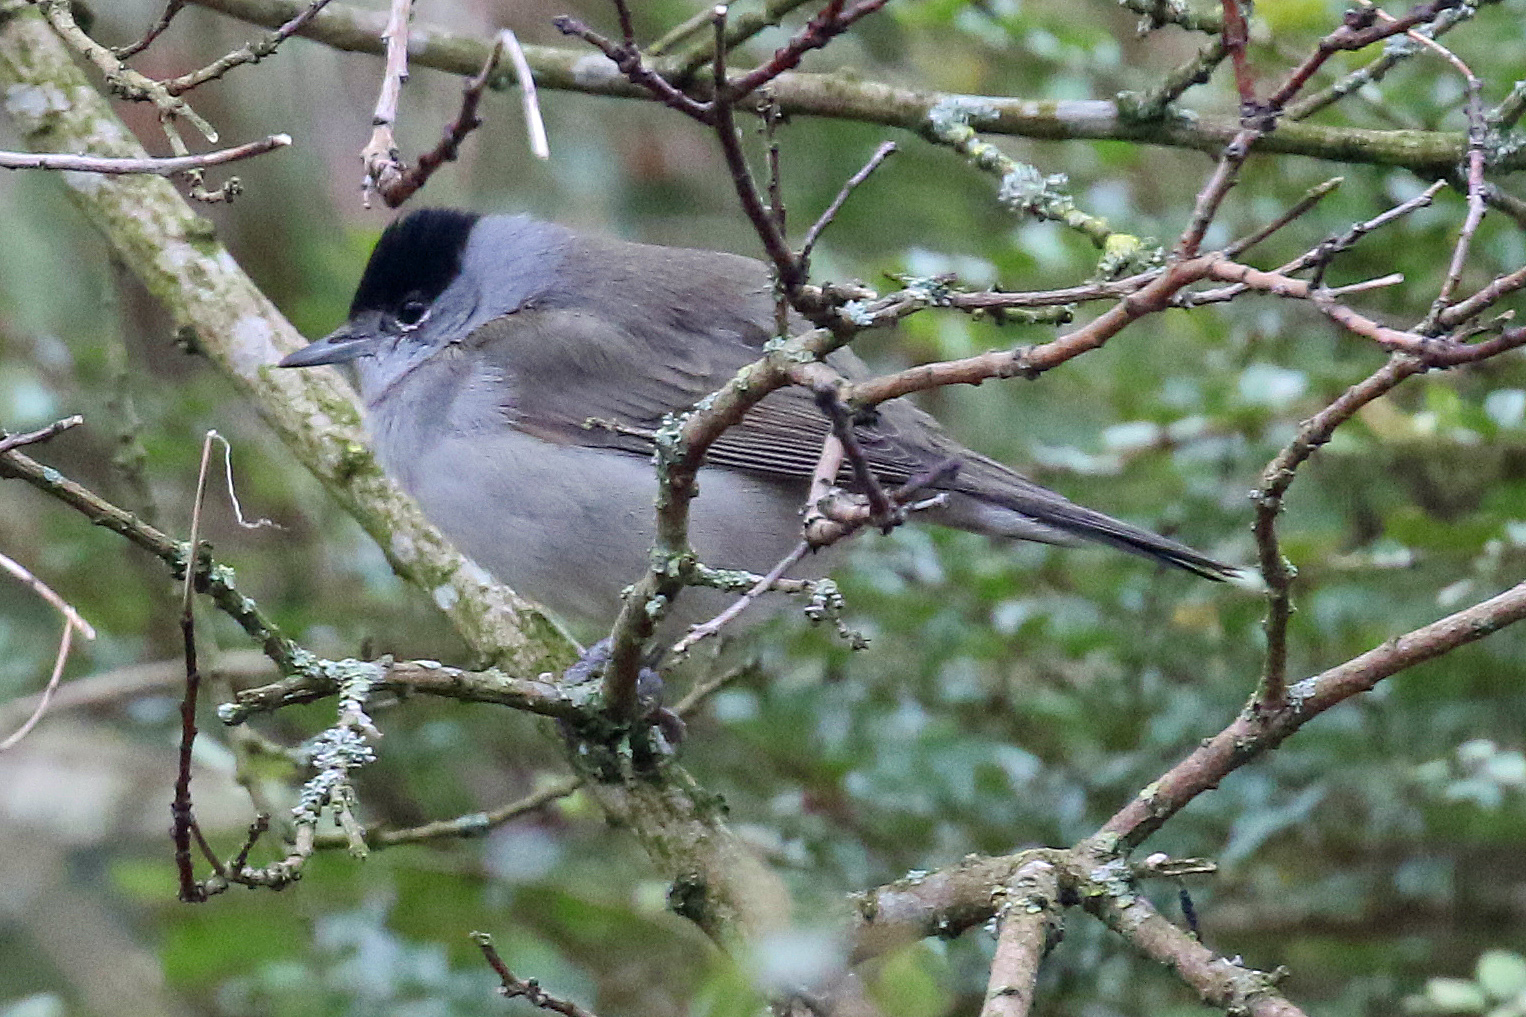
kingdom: Animalia
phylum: Chordata
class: Aves
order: Passeriformes
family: Sylviidae
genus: Sylvia
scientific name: Sylvia atricapilla
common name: Eurasian blackcap
